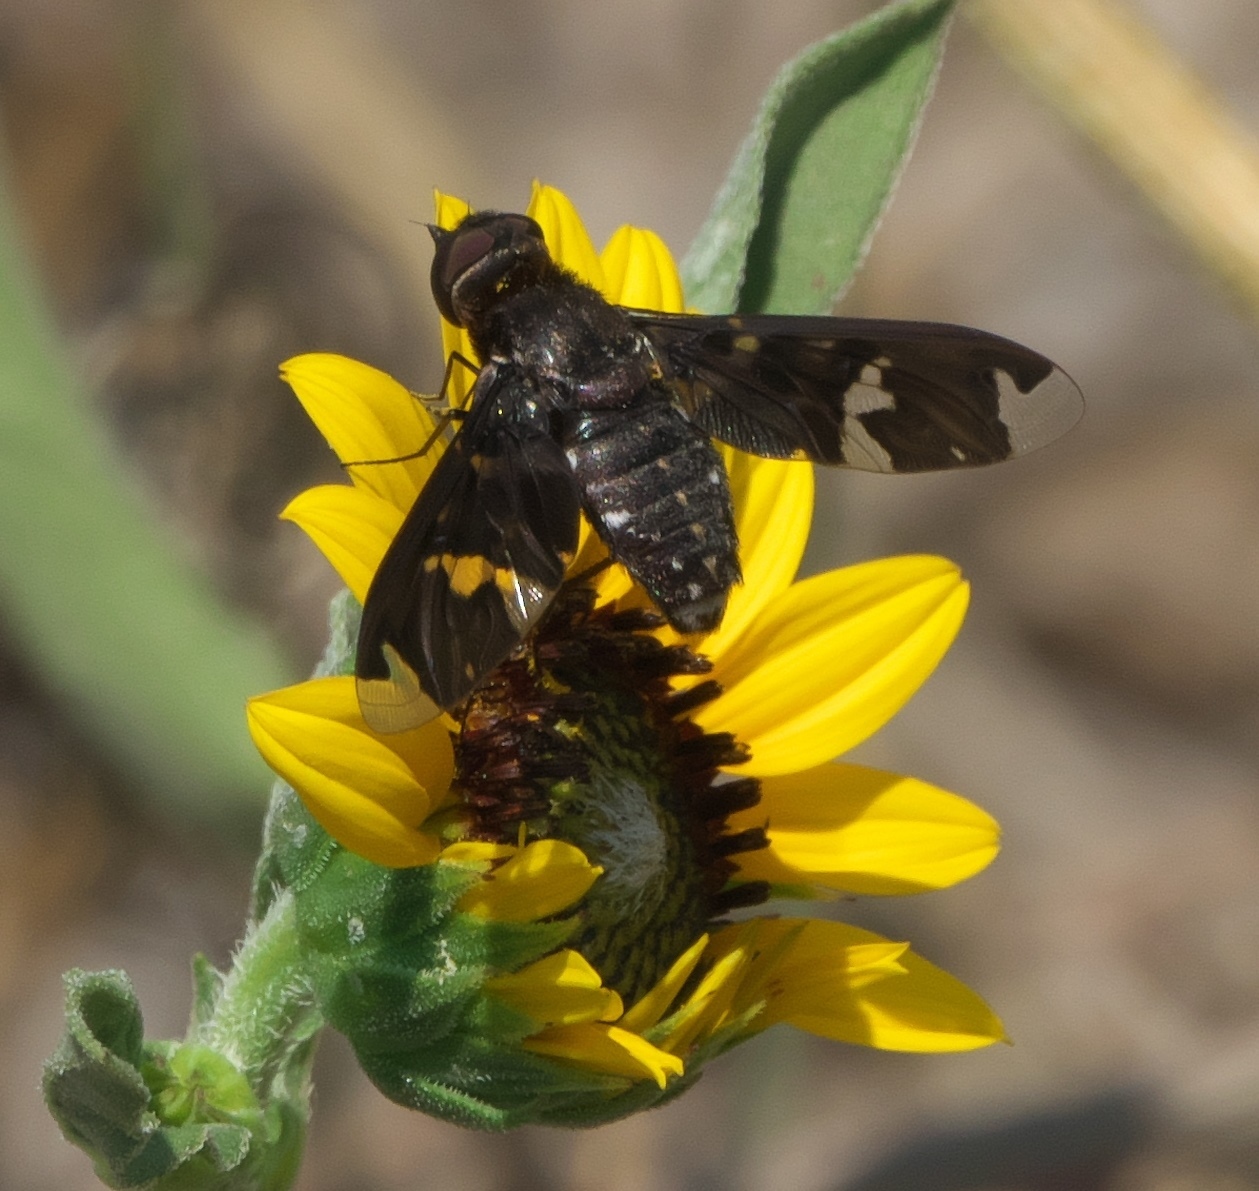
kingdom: Animalia
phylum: Arthropoda
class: Insecta
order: Diptera
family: Bombyliidae
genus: Exoprosopa
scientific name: Exoprosopa decora
